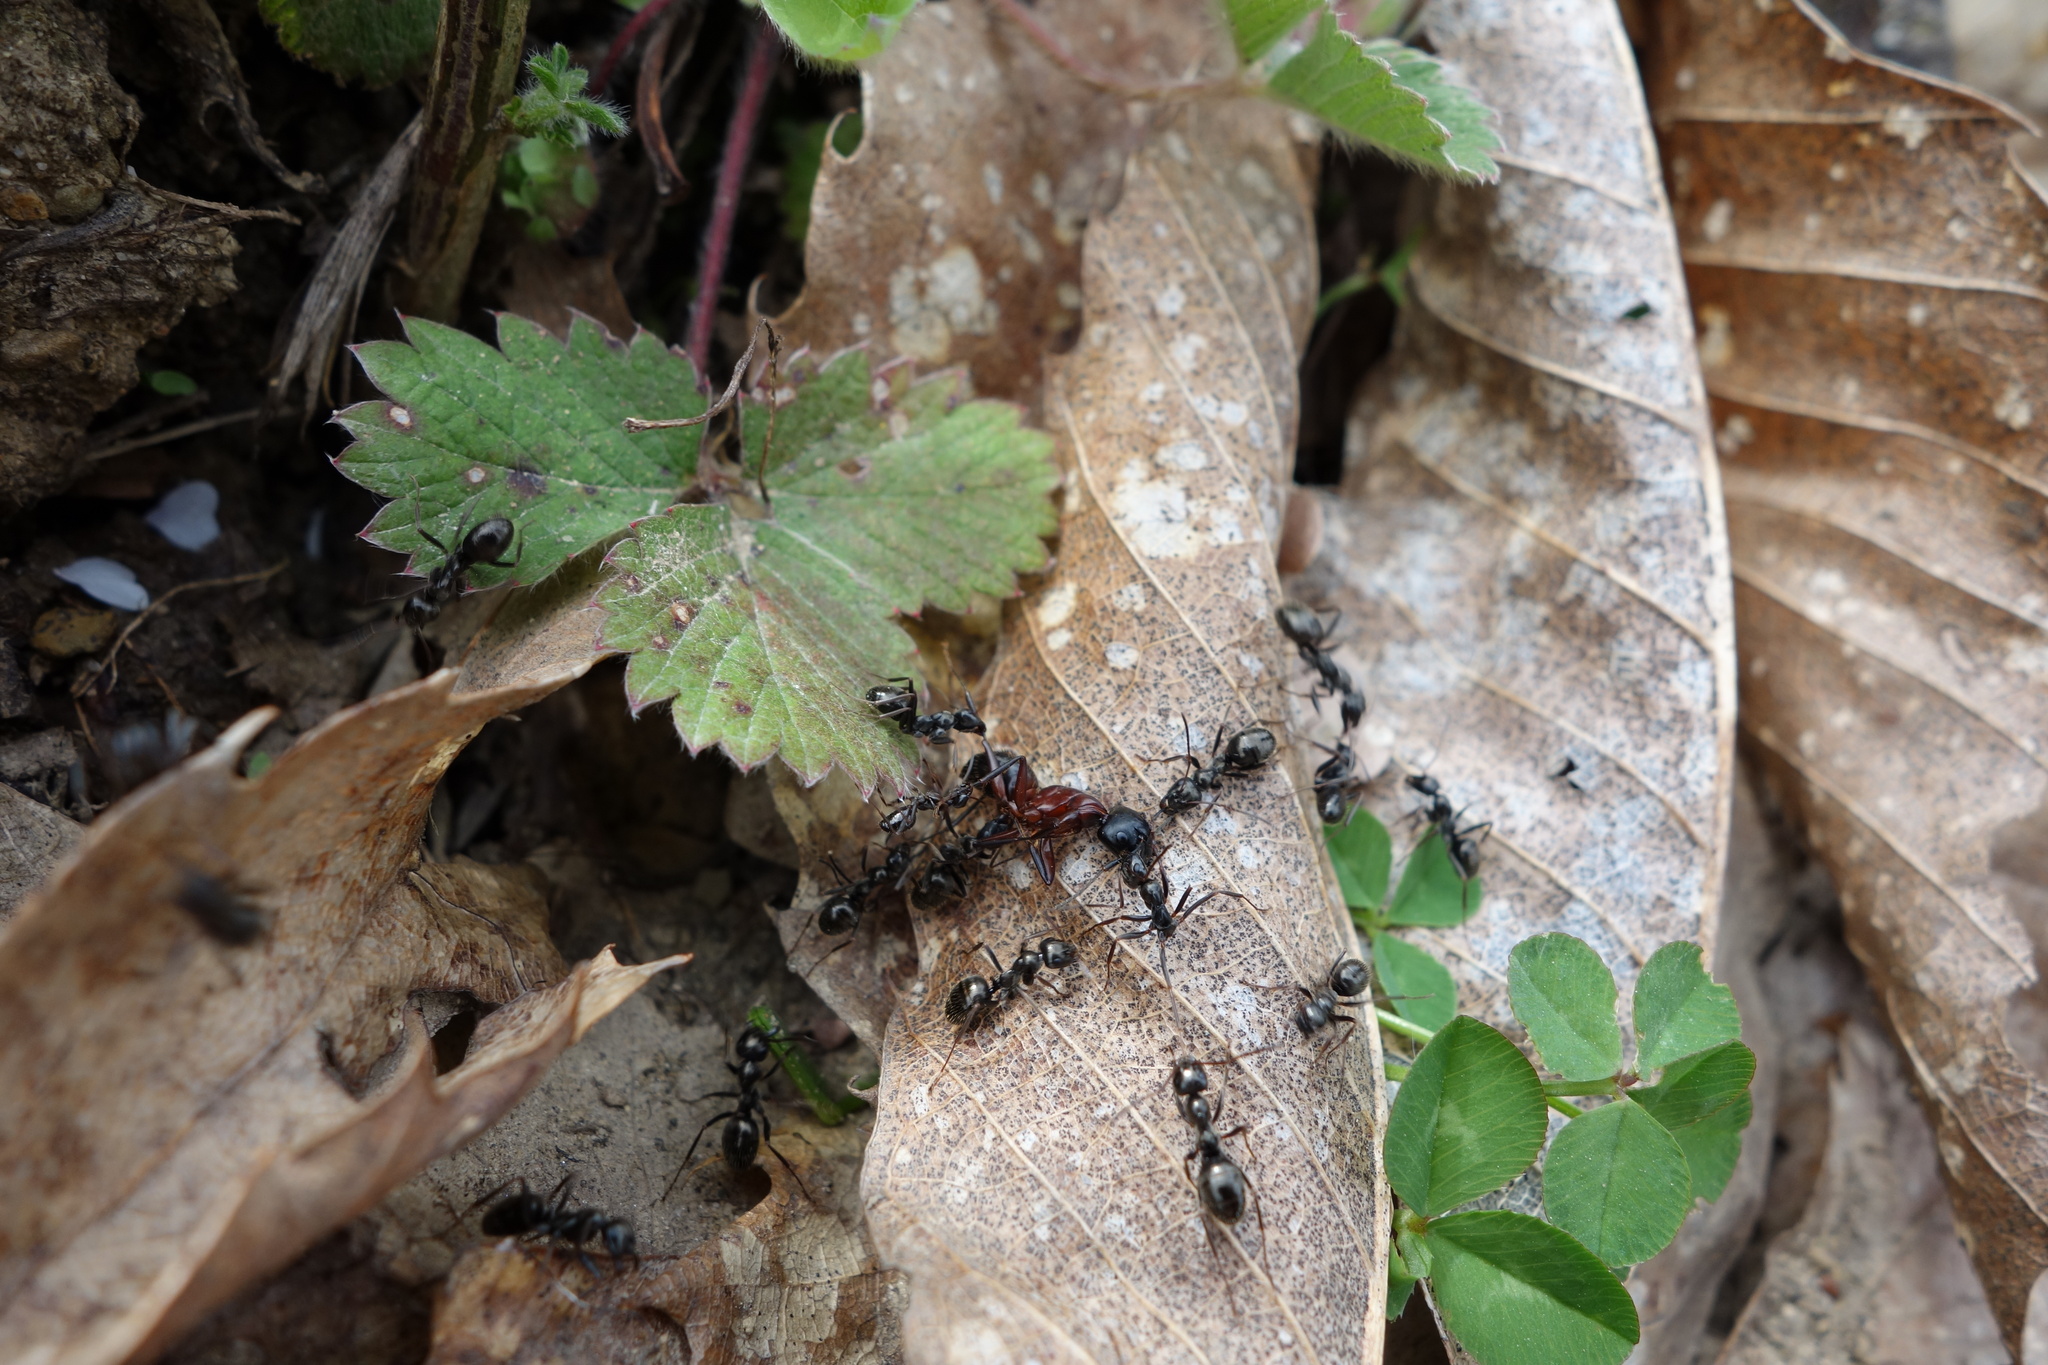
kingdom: Animalia
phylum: Arthropoda
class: Insecta
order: Hymenoptera
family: Formicidae
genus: Camponotus
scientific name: Camponotus ligniperdus
